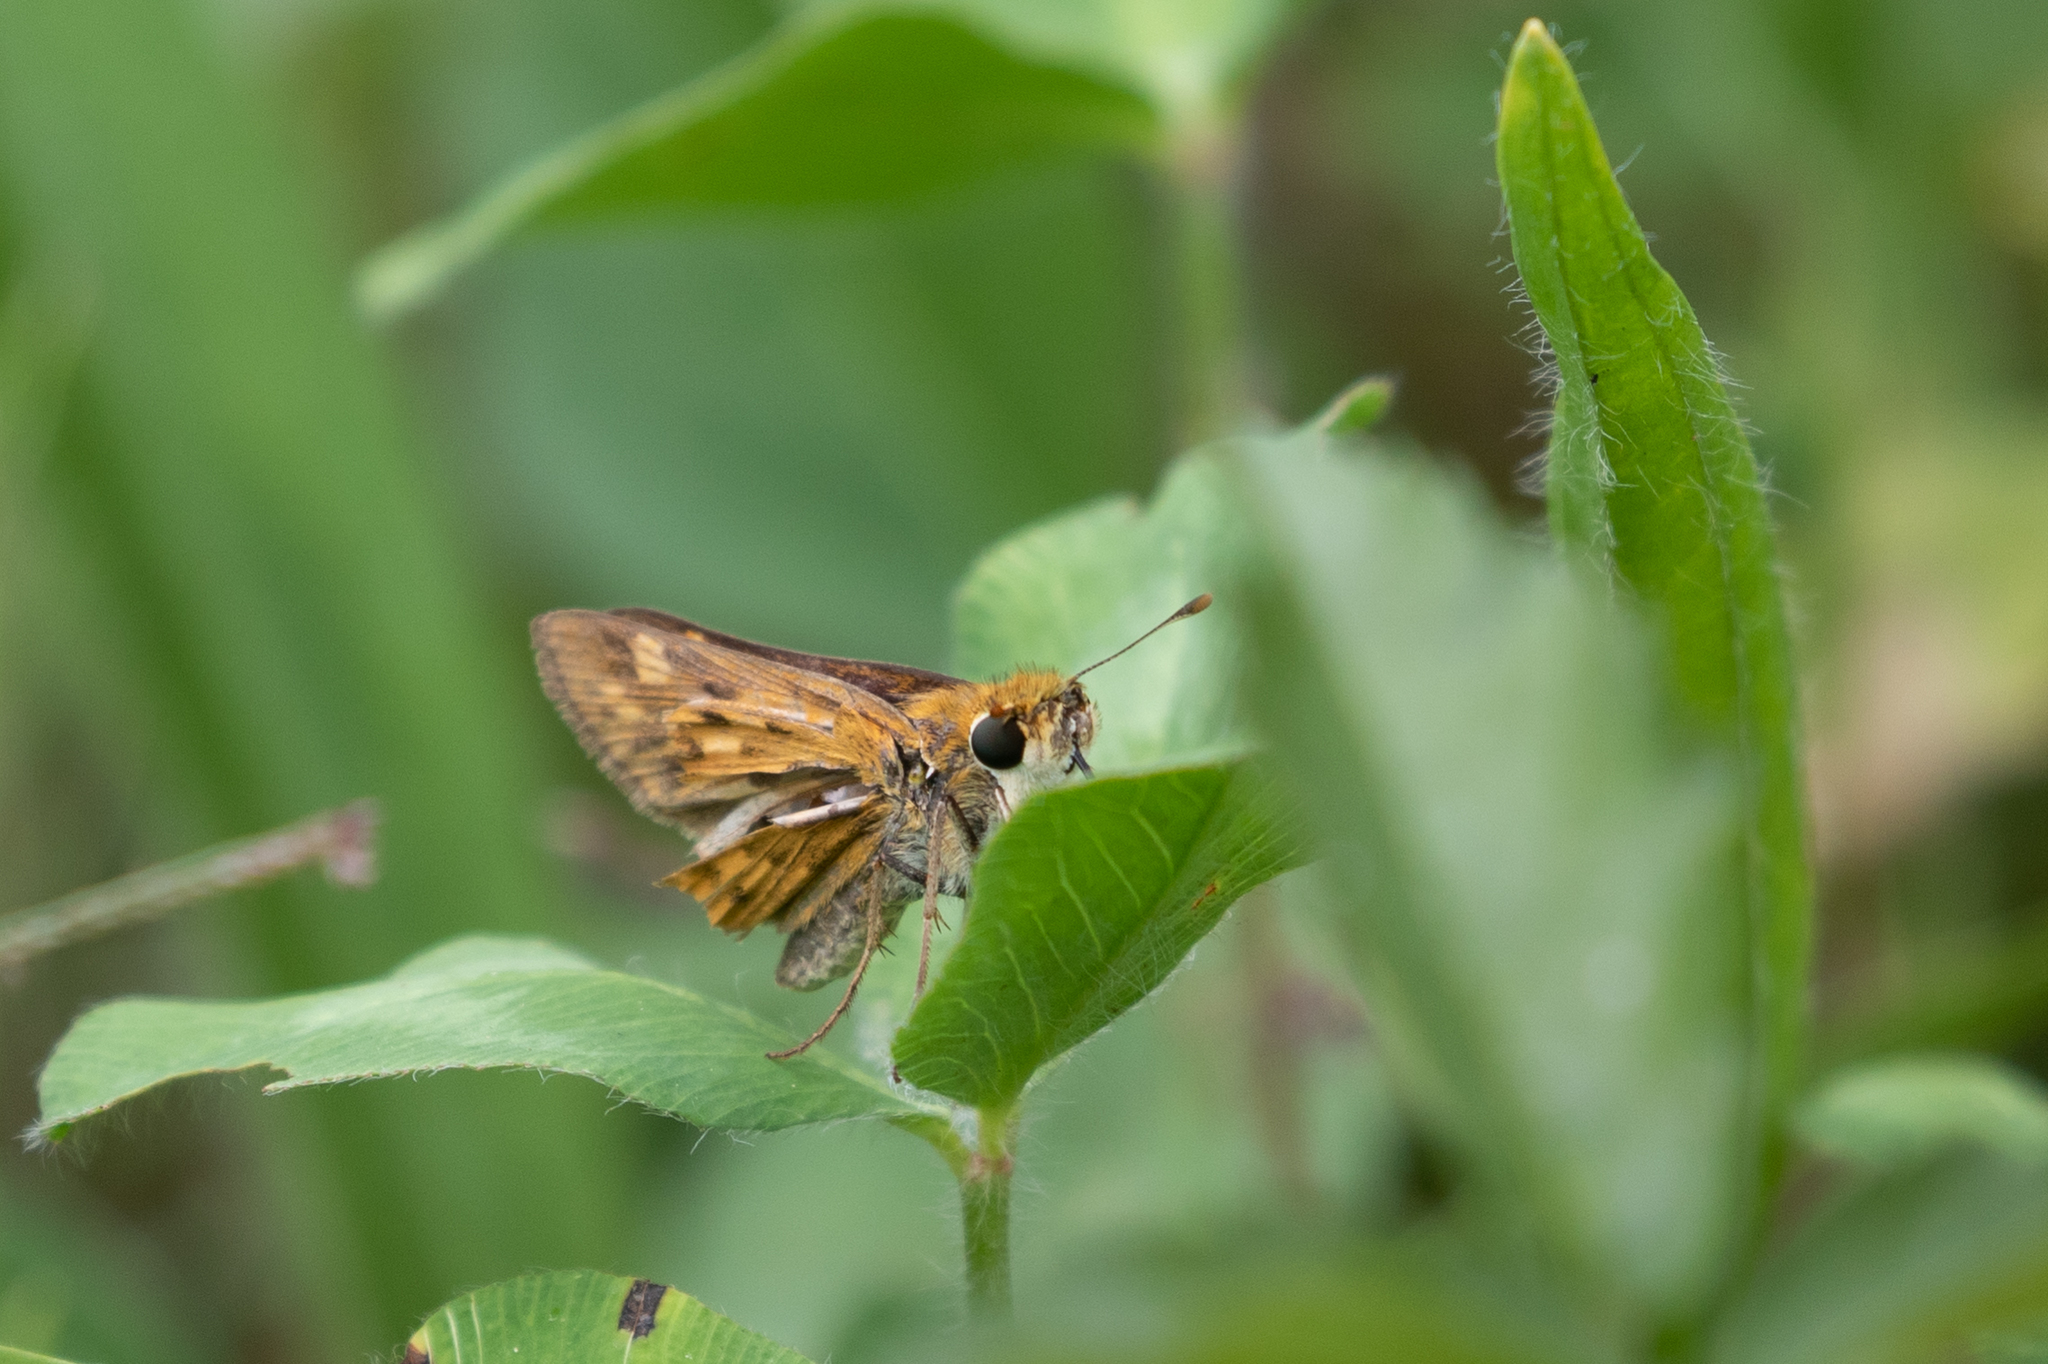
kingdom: Animalia
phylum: Arthropoda
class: Insecta
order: Lepidoptera
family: Hesperiidae
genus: Hylephila
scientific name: Hylephila phyleus
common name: Fiery skipper
